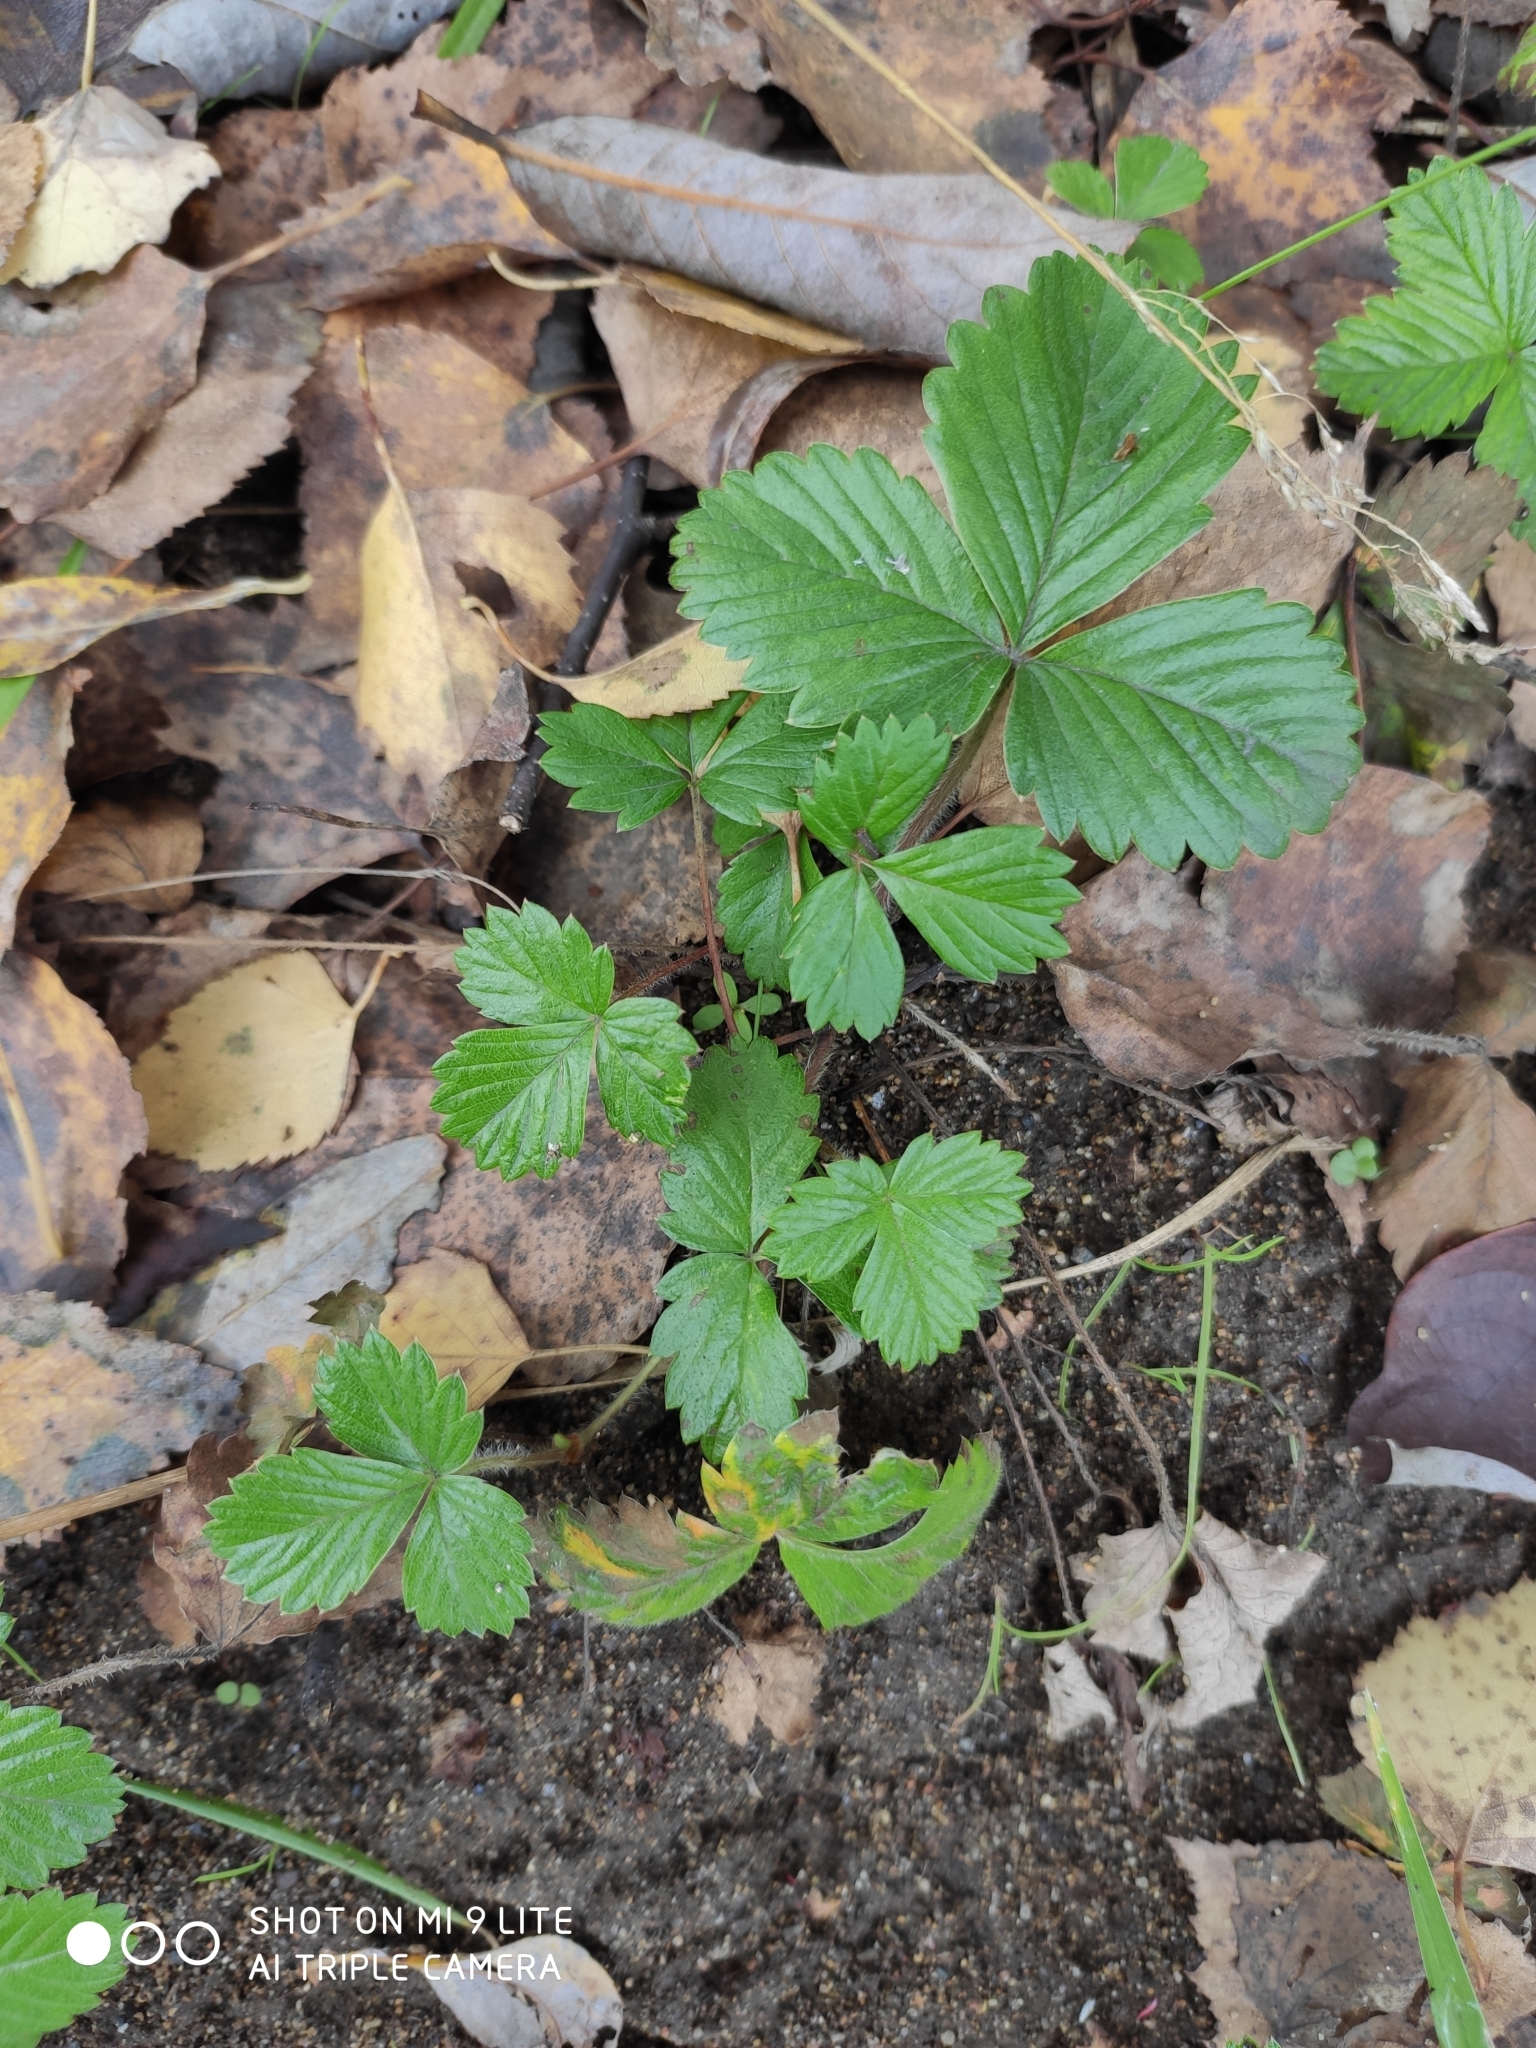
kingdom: Plantae
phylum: Tracheophyta
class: Magnoliopsida
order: Rosales
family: Rosaceae
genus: Fragaria
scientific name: Fragaria vesca
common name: Wild strawberry
